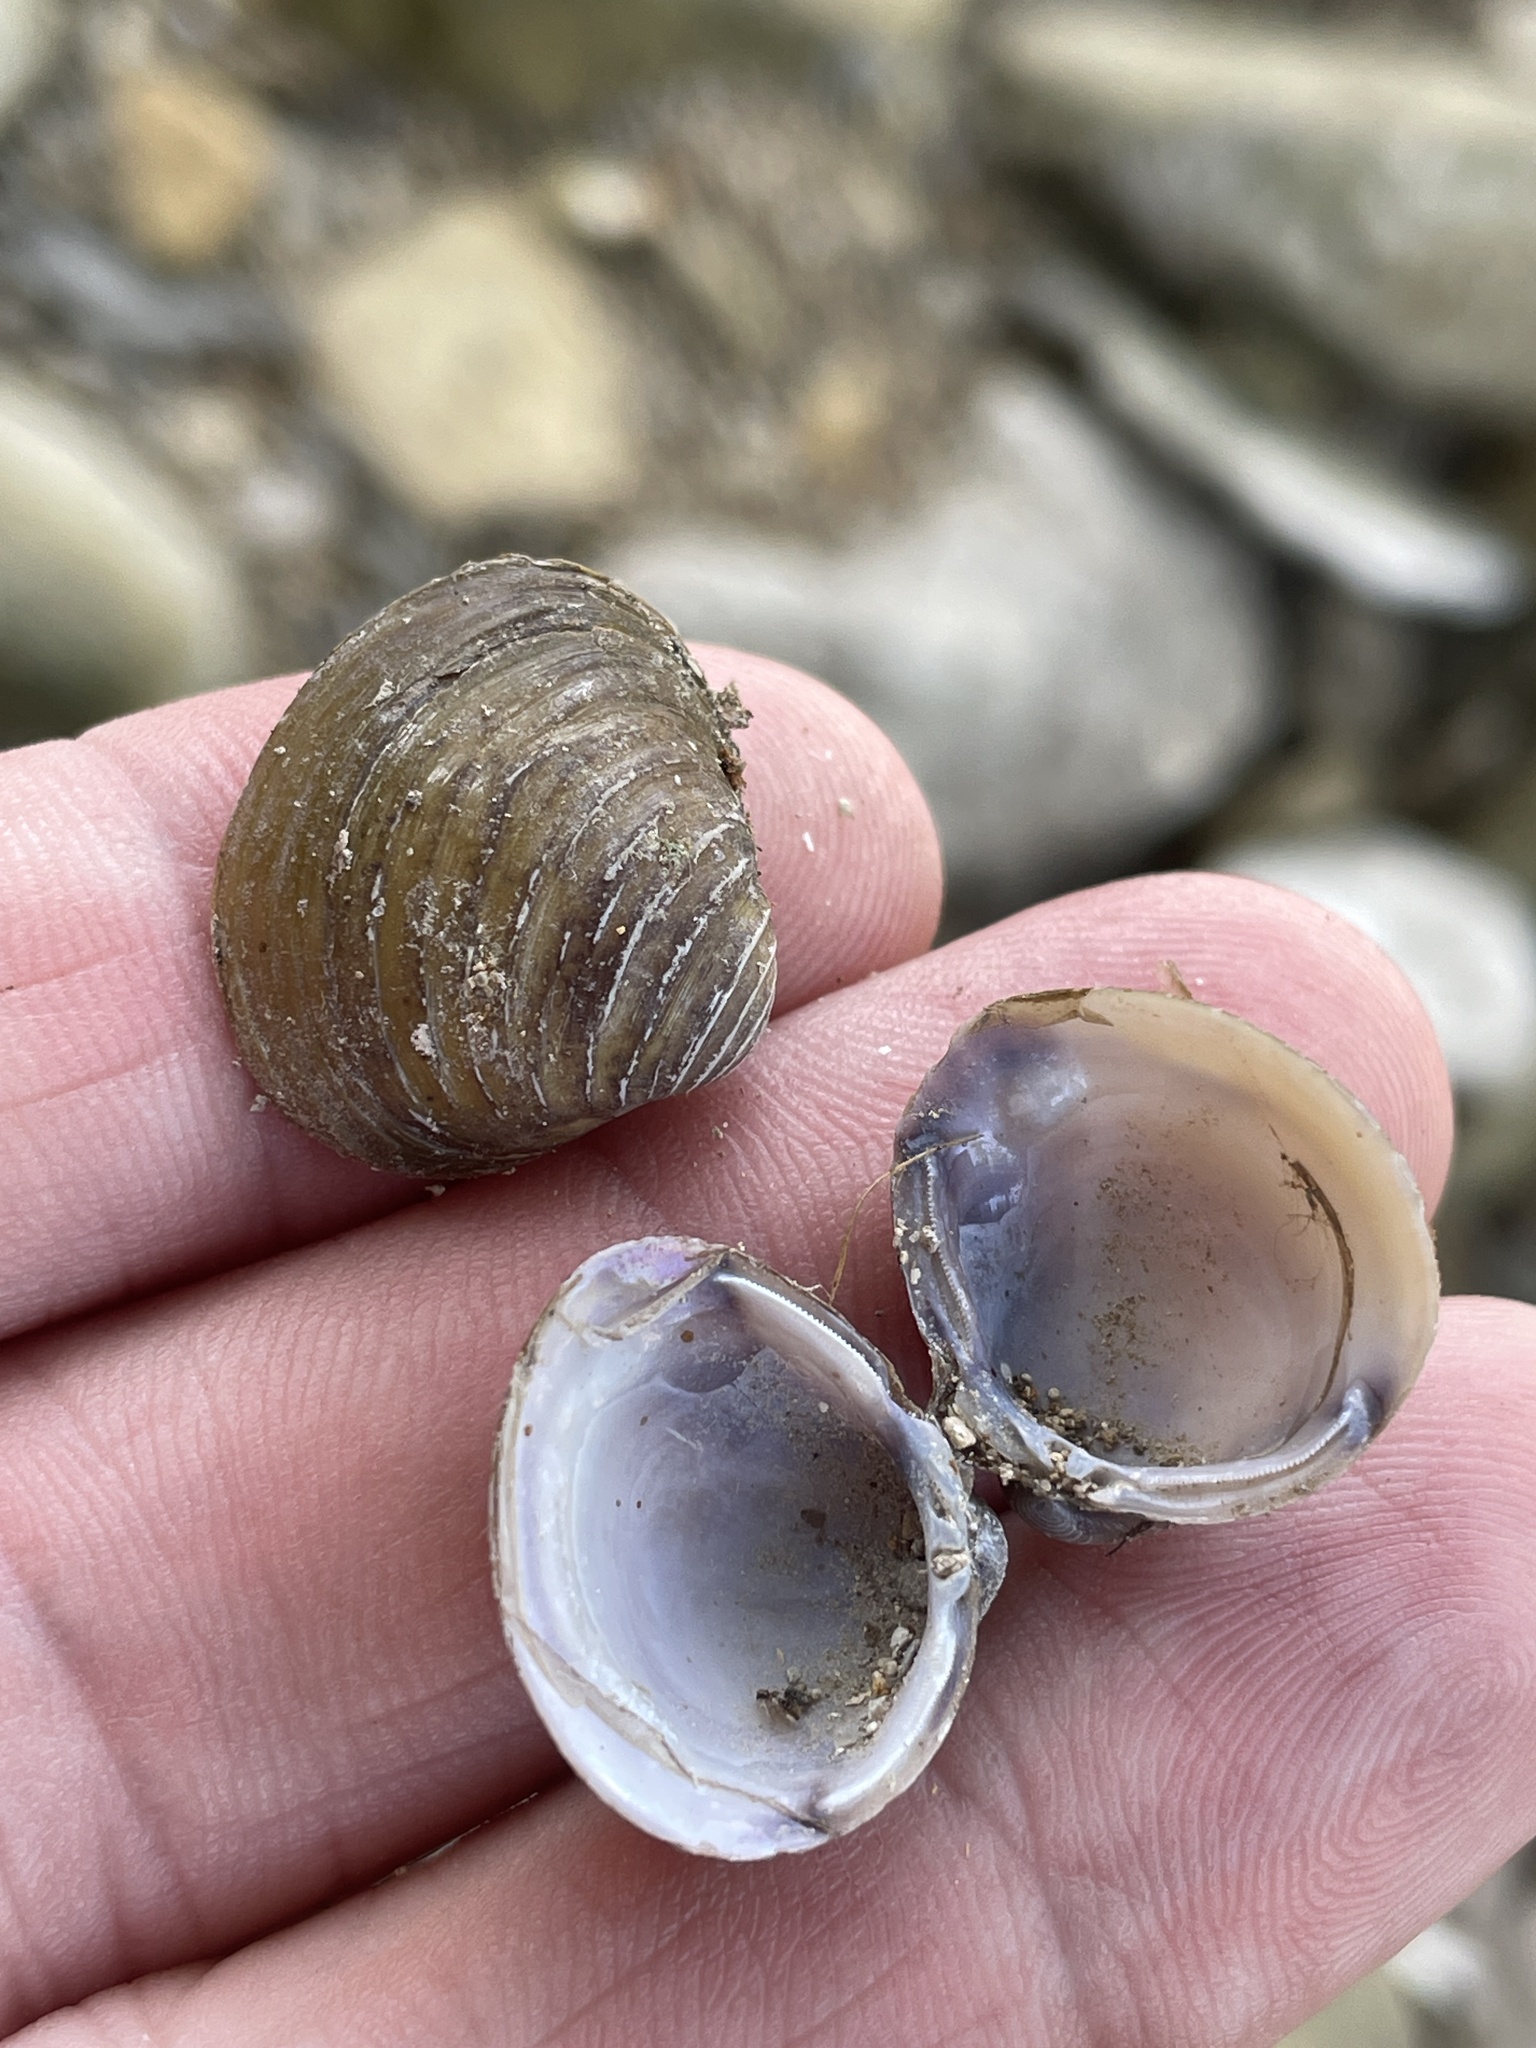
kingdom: Animalia
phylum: Mollusca
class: Bivalvia
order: Venerida
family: Cyrenidae
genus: Corbicula
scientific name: Corbicula fluminea
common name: Asian clam
